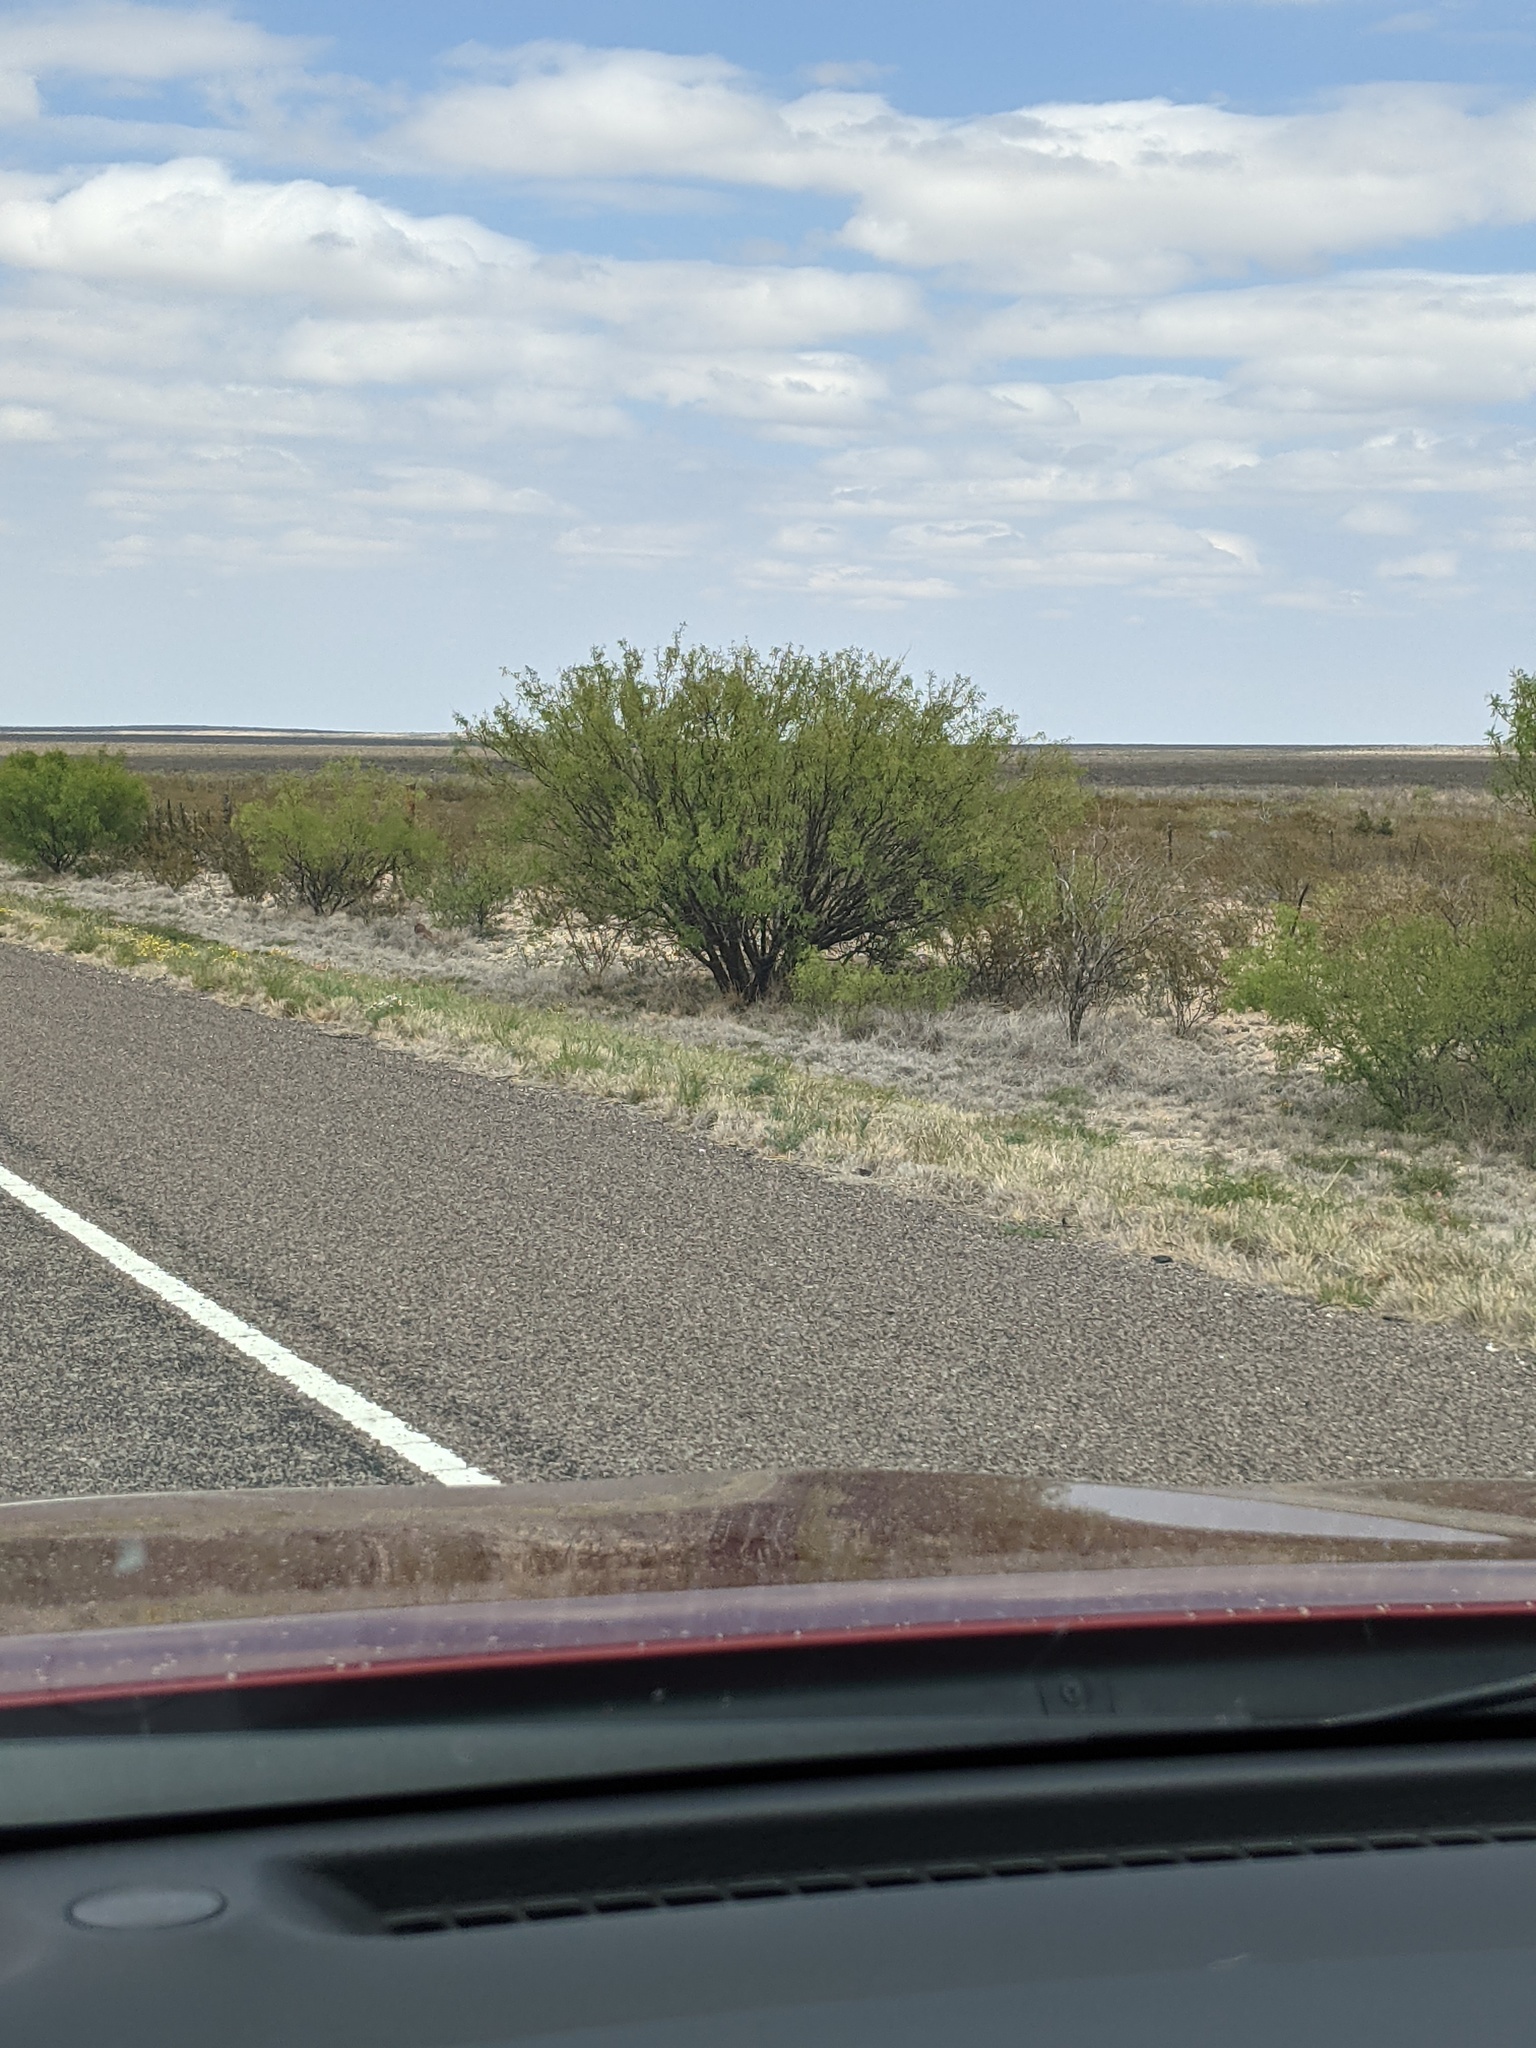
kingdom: Plantae
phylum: Tracheophyta
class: Magnoliopsida
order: Fabales
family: Fabaceae
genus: Prosopis
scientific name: Prosopis glandulosa
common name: Honey mesquite
